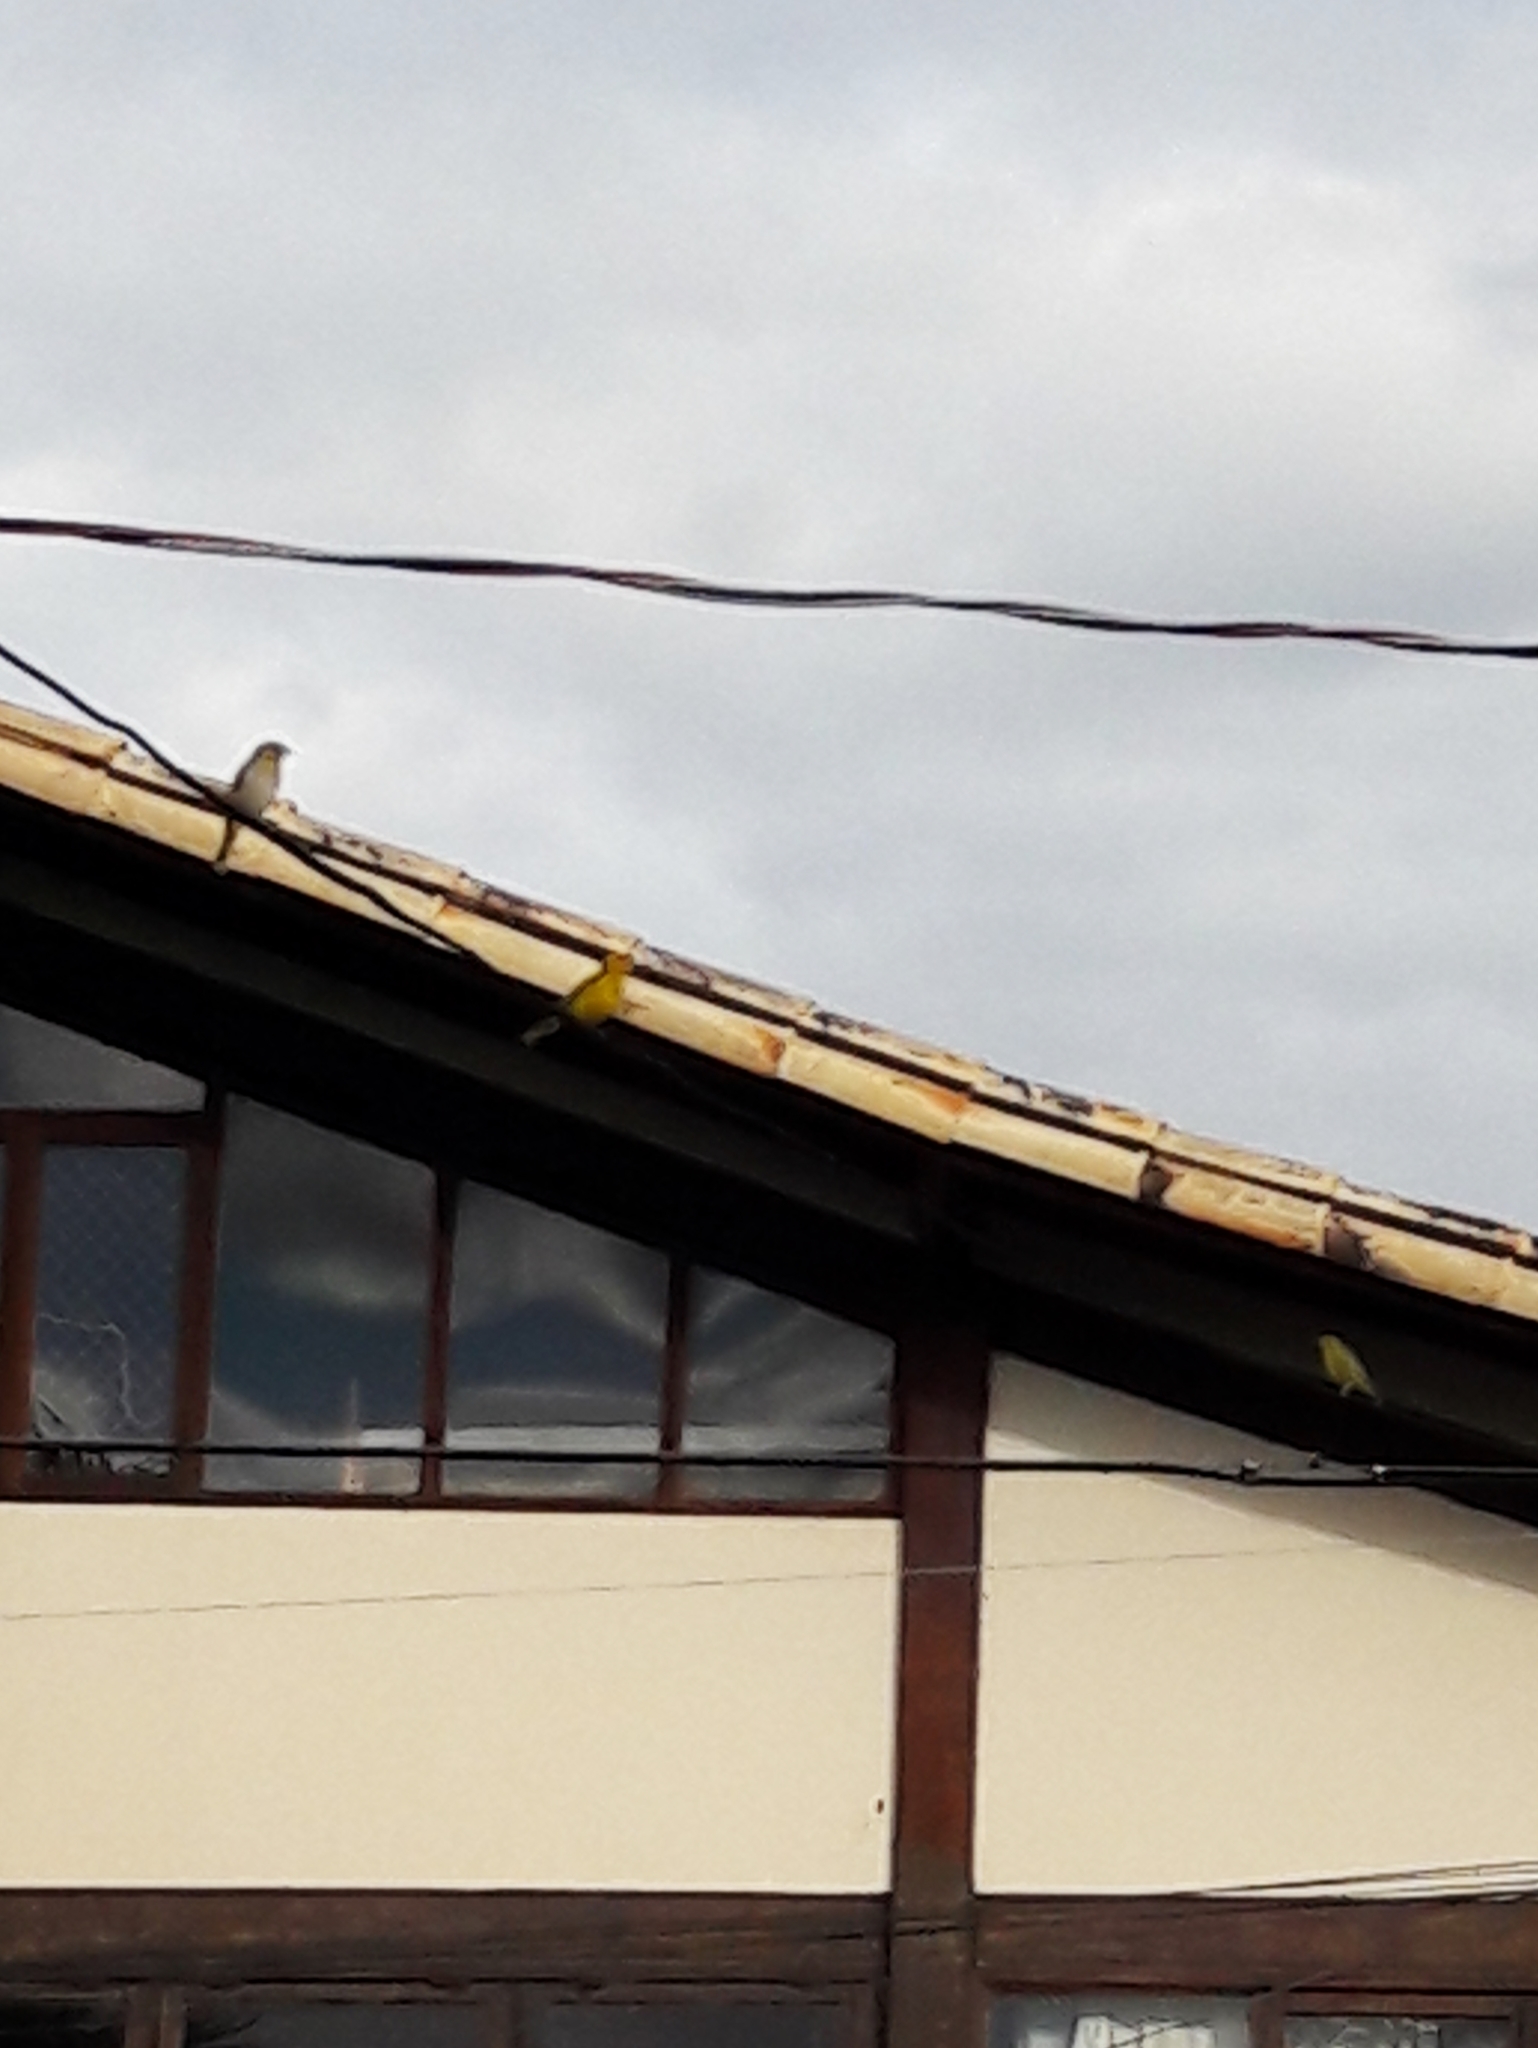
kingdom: Animalia
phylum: Chordata
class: Aves
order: Passeriformes
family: Thraupidae
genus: Sicalis
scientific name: Sicalis flaveola
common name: Saffron finch
